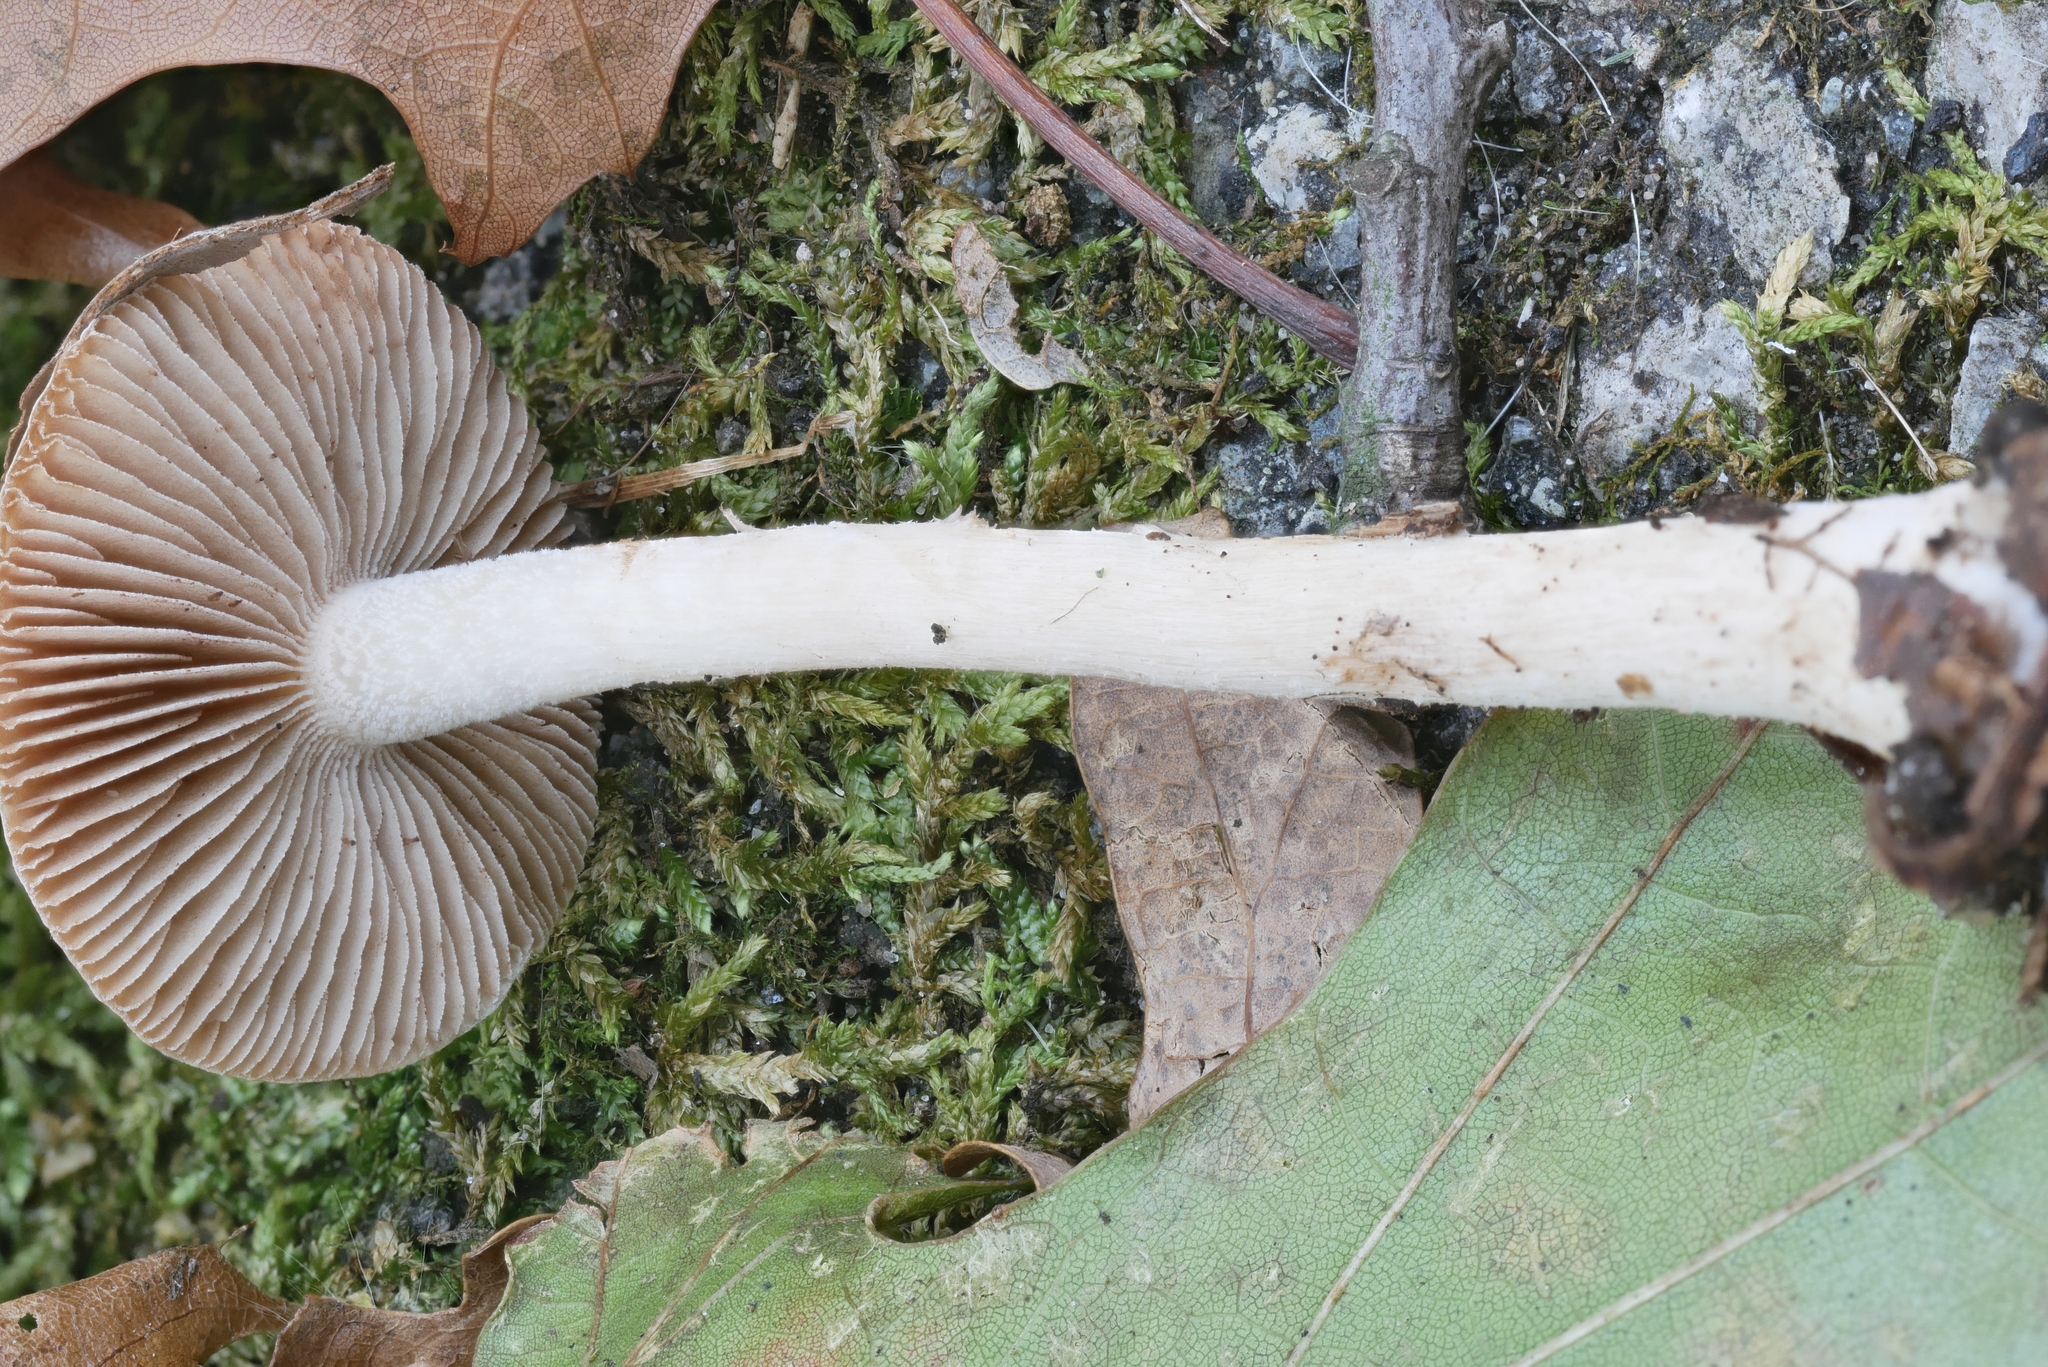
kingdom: Fungi
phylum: Basidiomycota
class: Agaricomycetes
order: Agaricales
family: Hymenogastraceae
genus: Hebeloma
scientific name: Hebeloma albidulum
